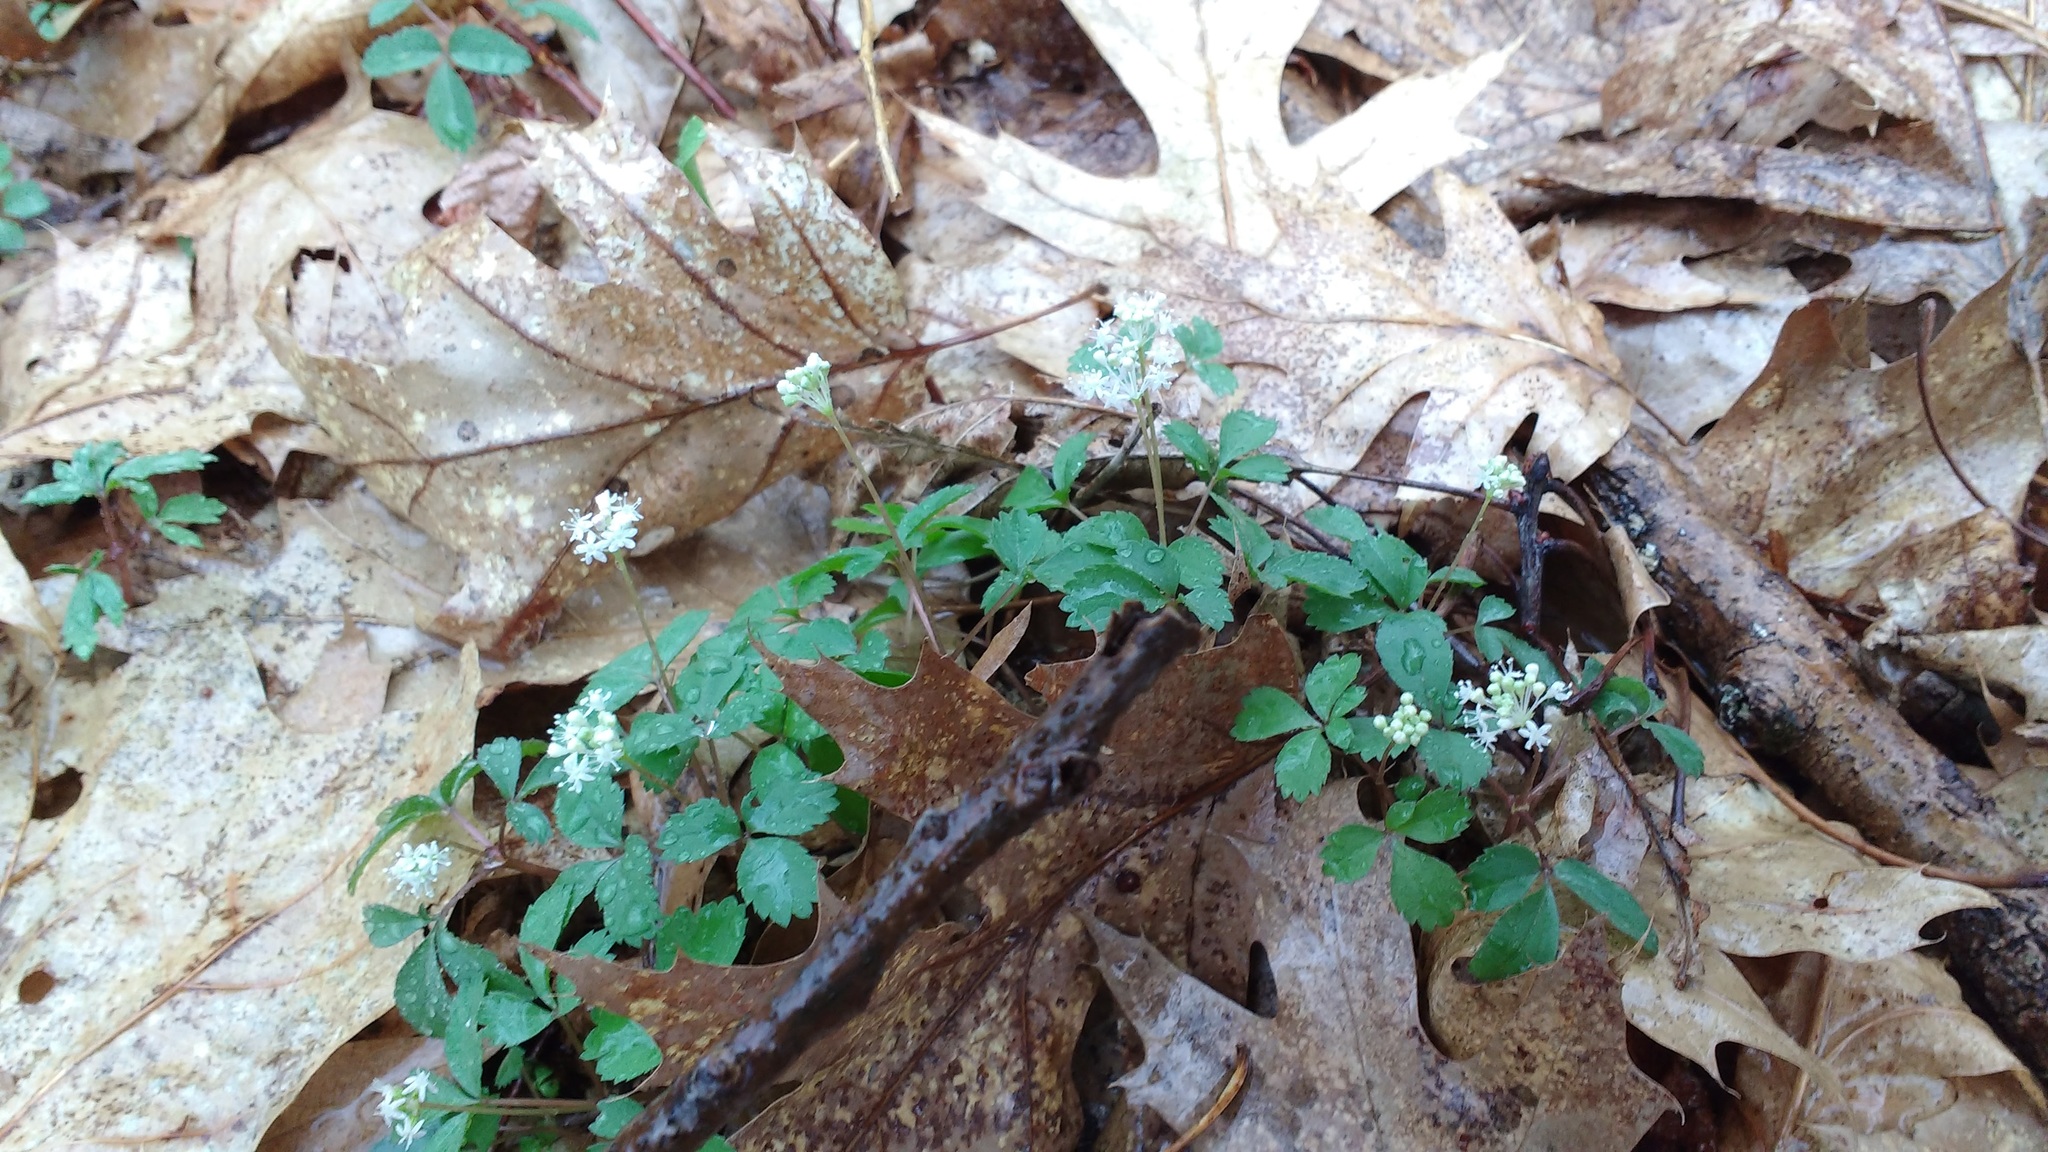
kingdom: Plantae
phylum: Tracheophyta
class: Magnoliopsida
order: Apiales
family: Araliaceae
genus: Panax
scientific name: Panax trifolius
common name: Dwarf ginseng
